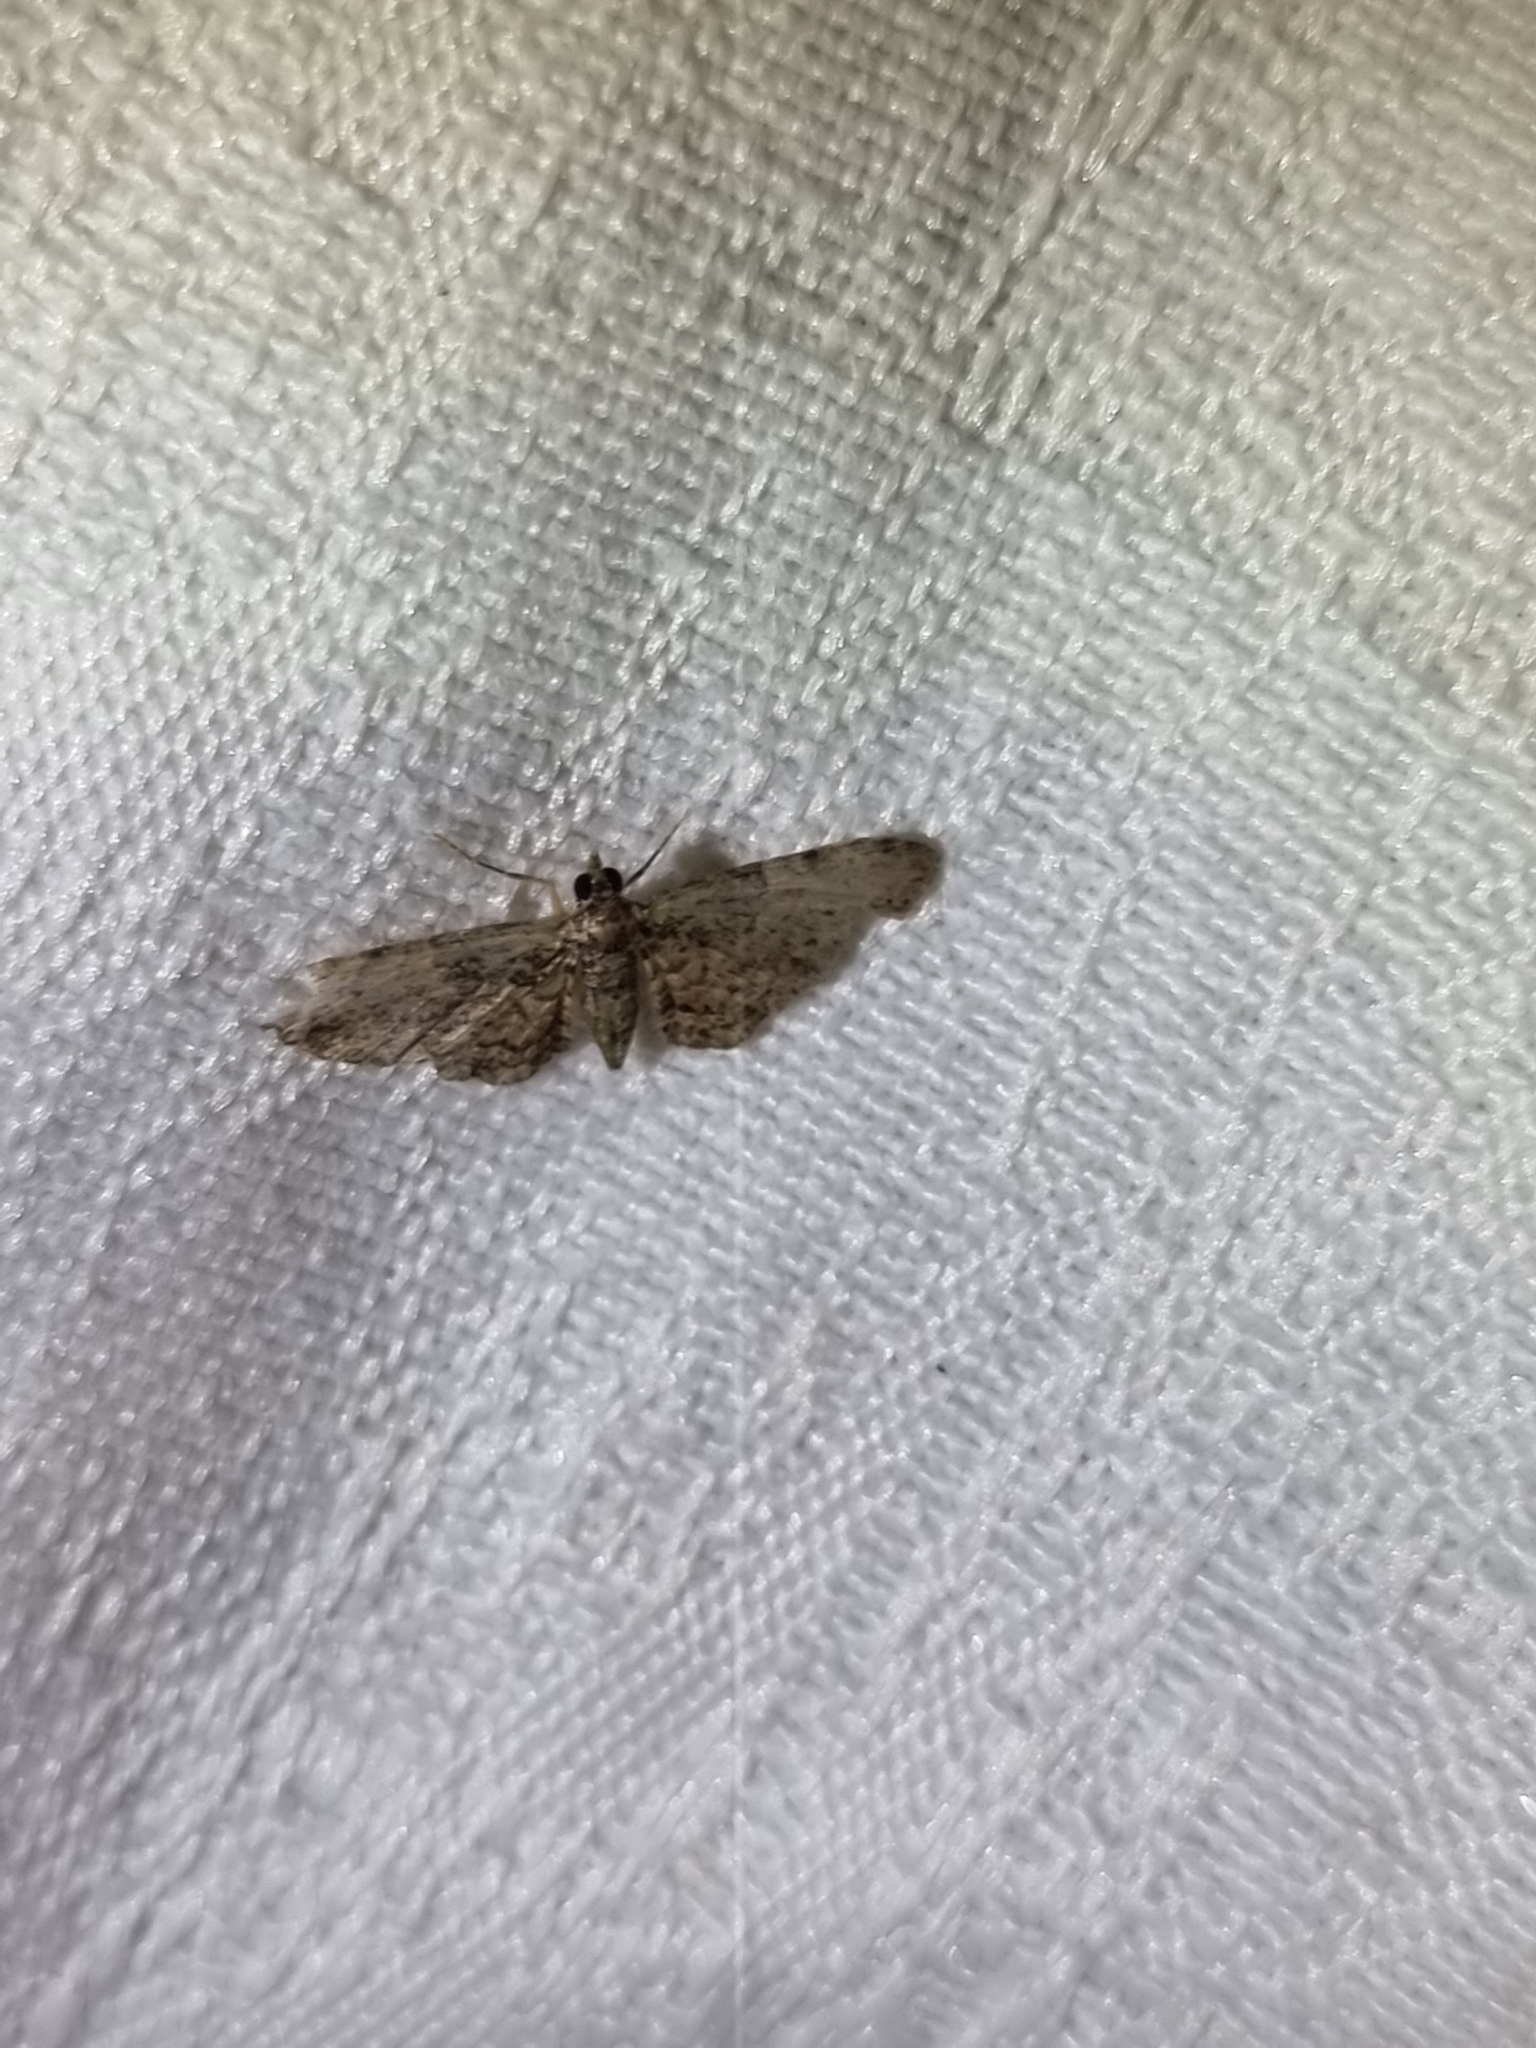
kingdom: Animalia
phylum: Arthropoda
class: Insecta
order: Lepidoptera
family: Geometridae
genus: Chloroclystis
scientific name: Chloroclystis catastreptes
